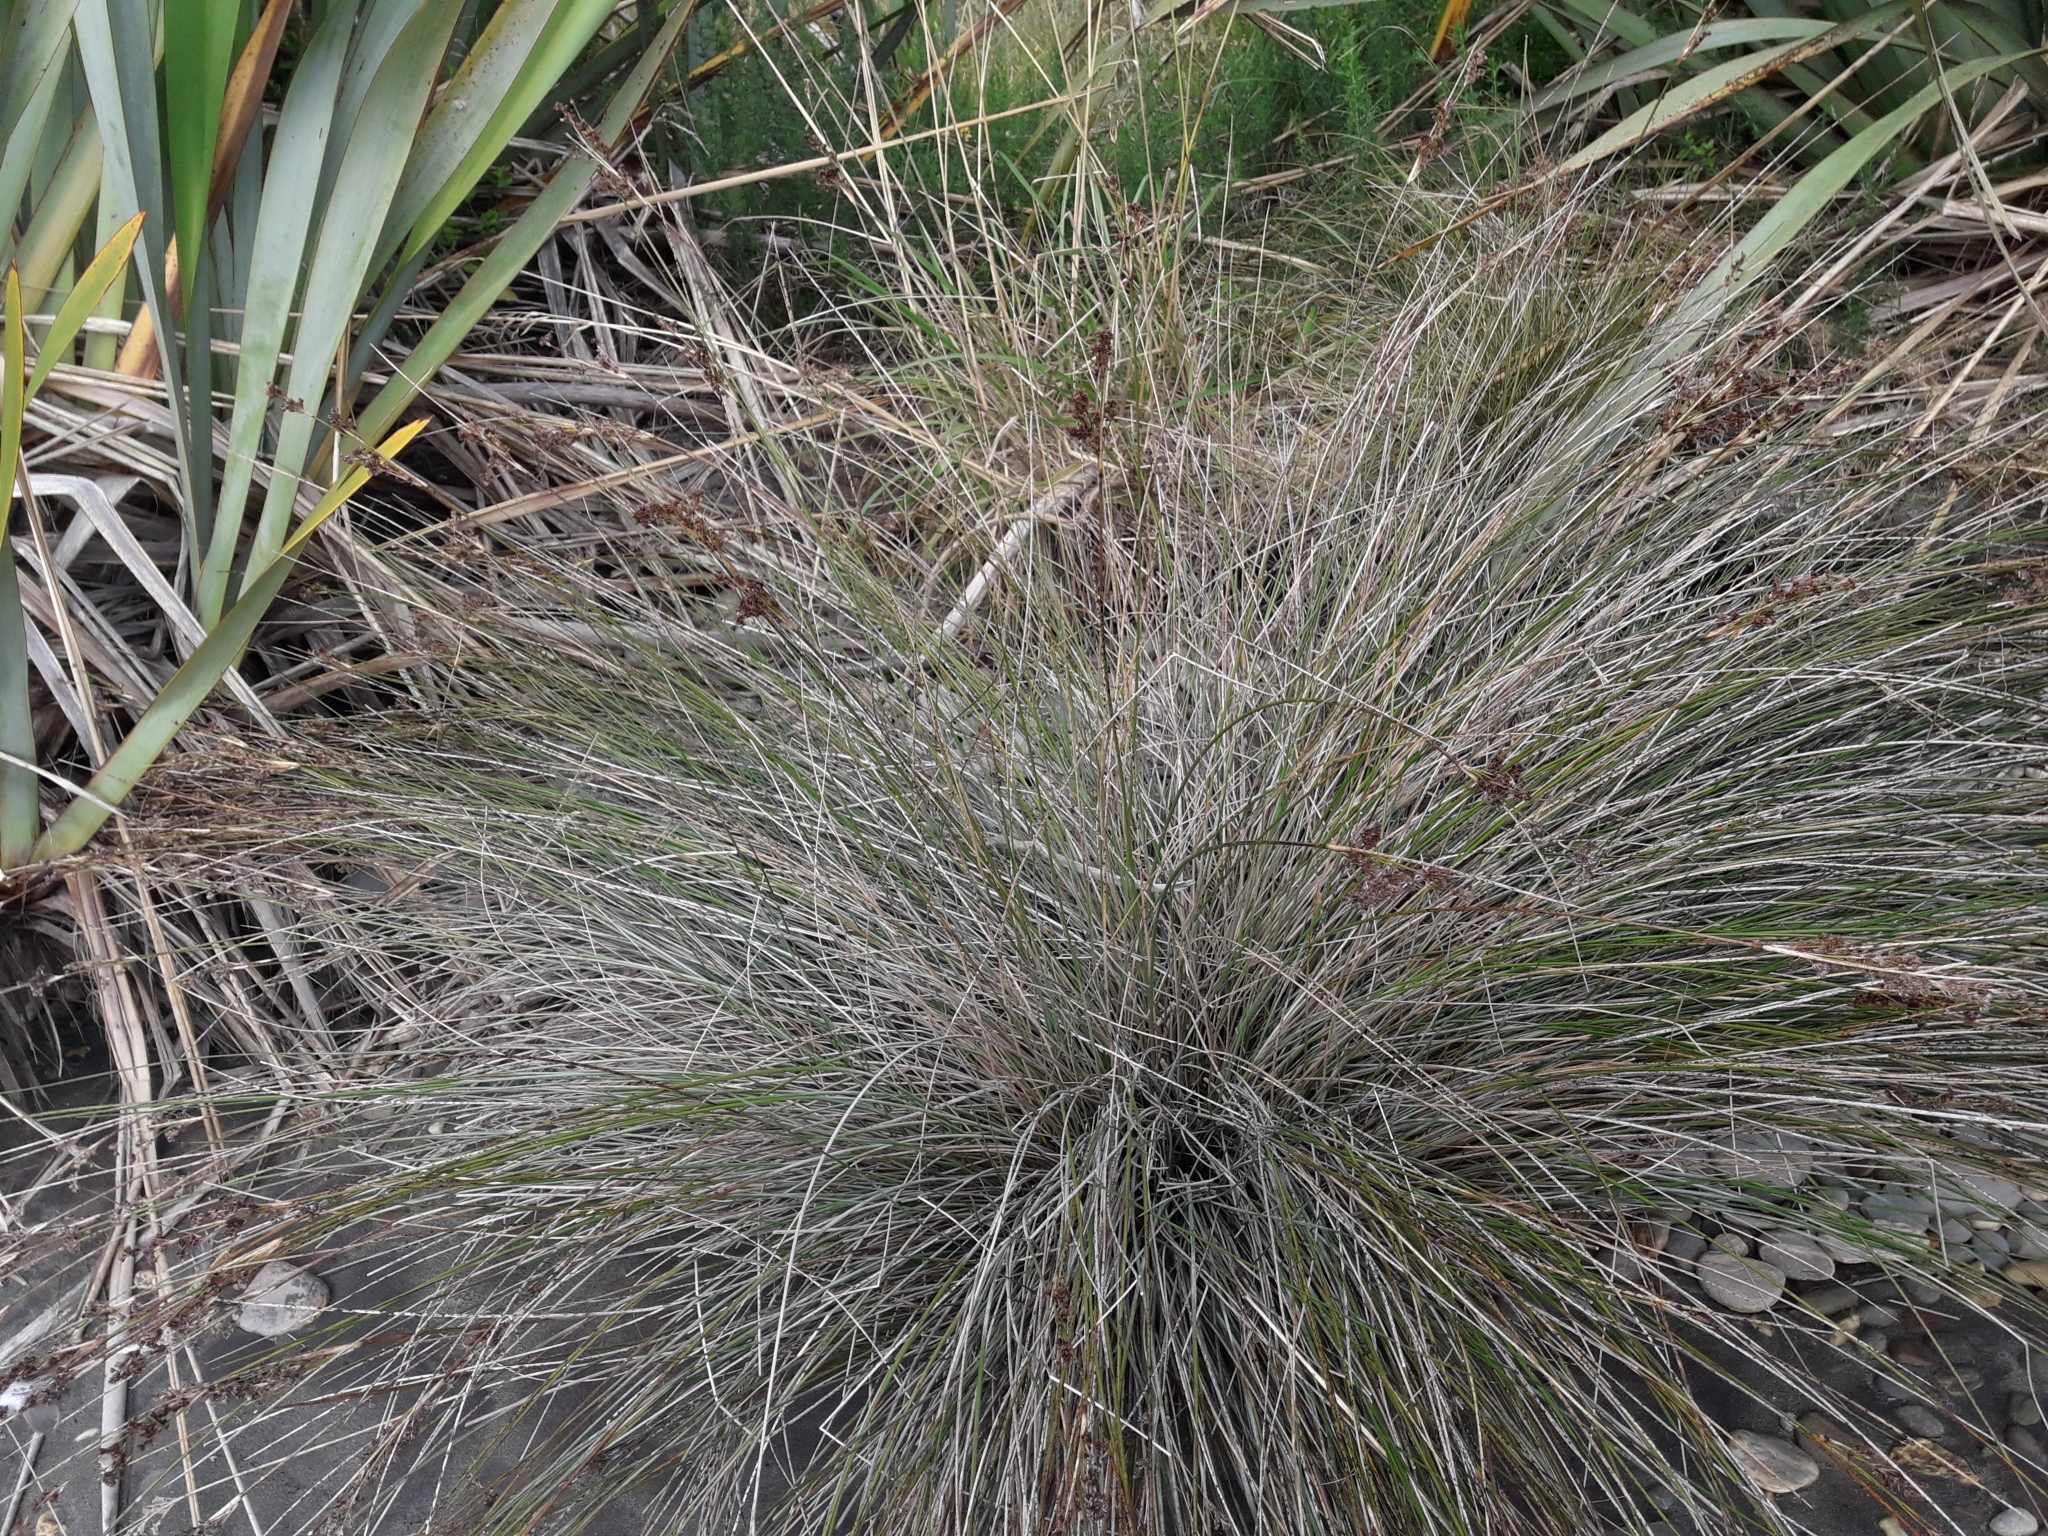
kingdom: Plantae
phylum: Tracheophyta
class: Liliopsida
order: Poales
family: Juncaceae
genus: Juncus
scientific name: Juncus kraussii
